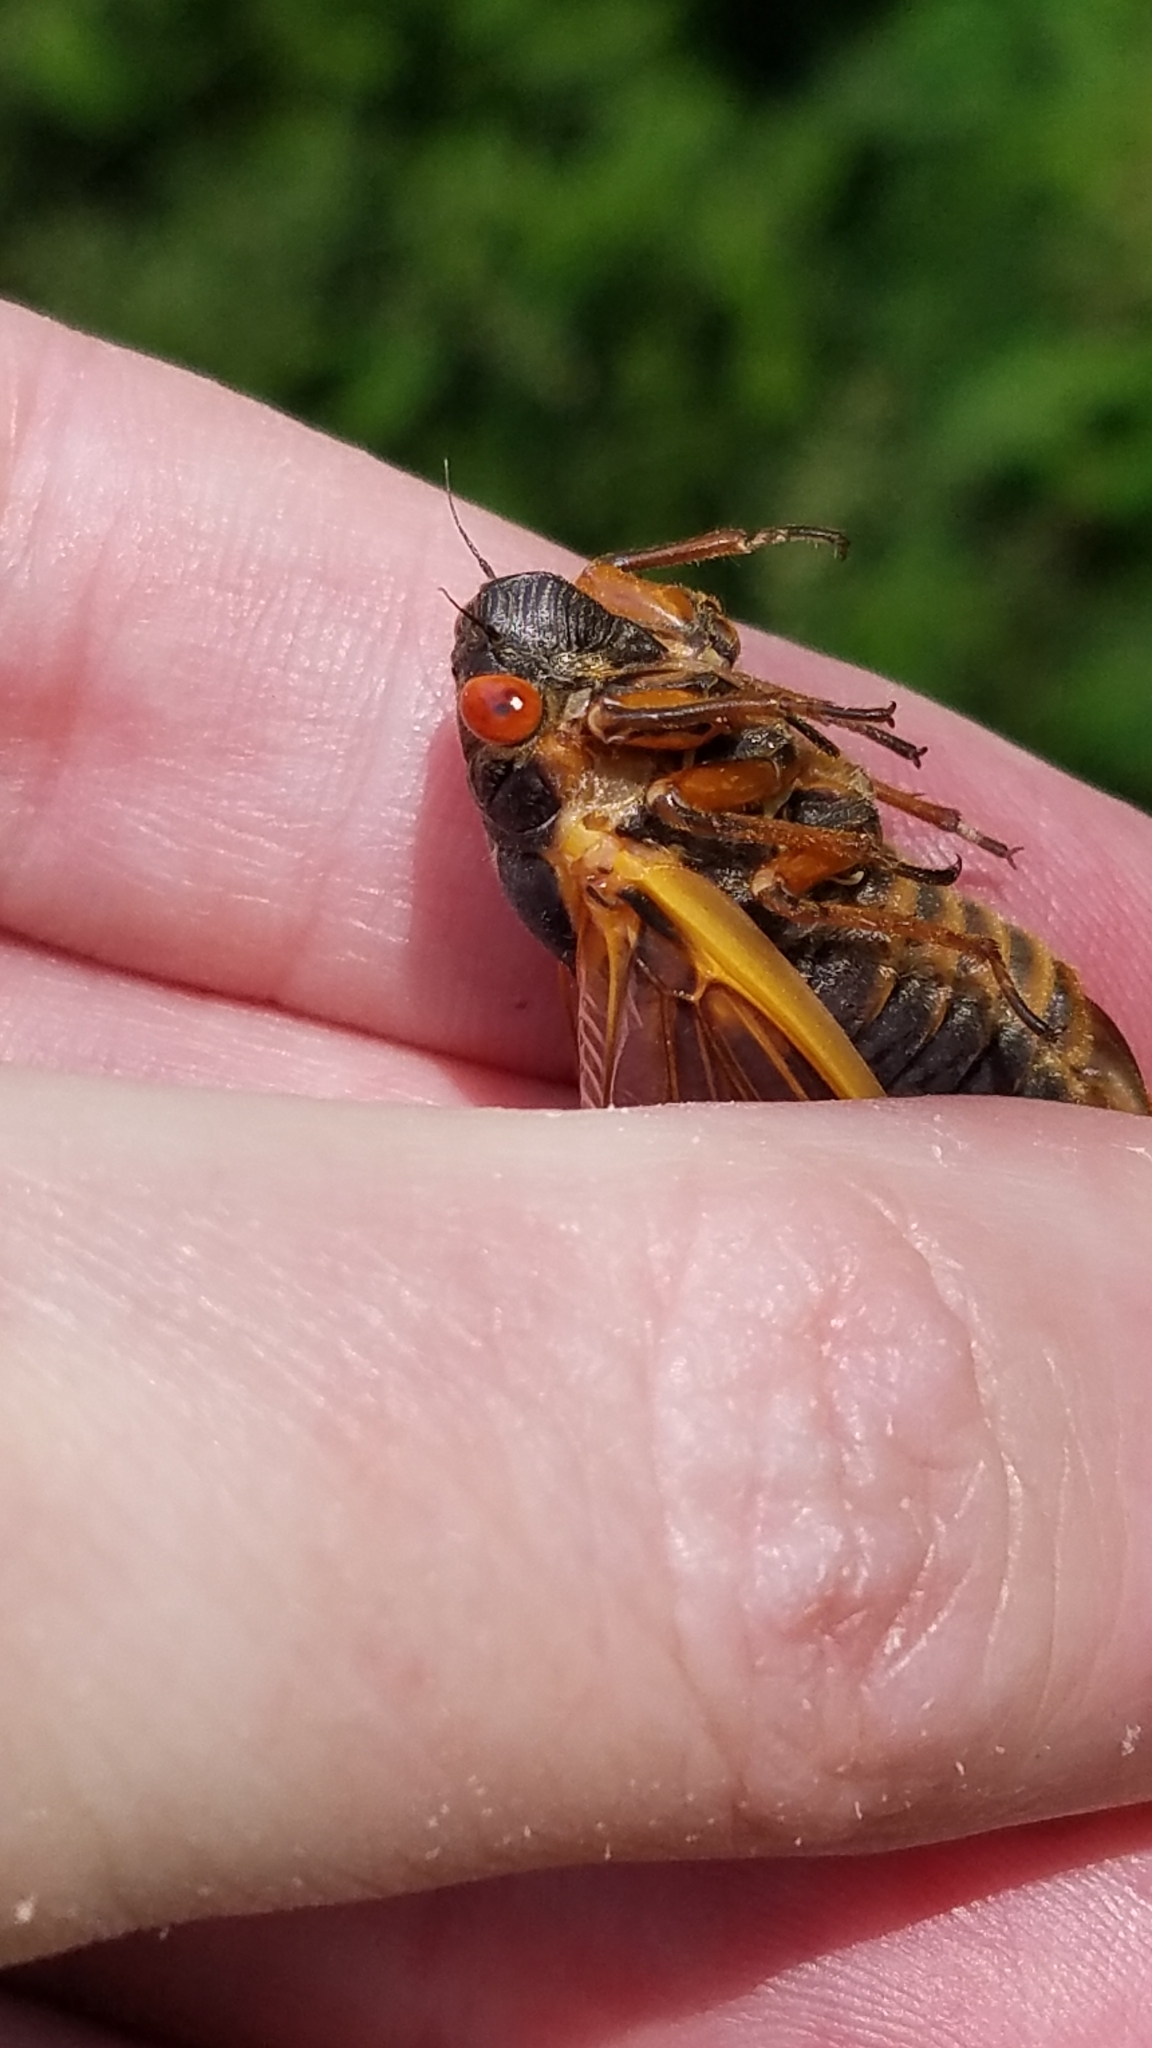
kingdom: Animalia
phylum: Arthropoda
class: Insecta
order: Hemiptera
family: Cicadidae
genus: Magicicada
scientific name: Magicicada septendecim
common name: Periodical cicada
